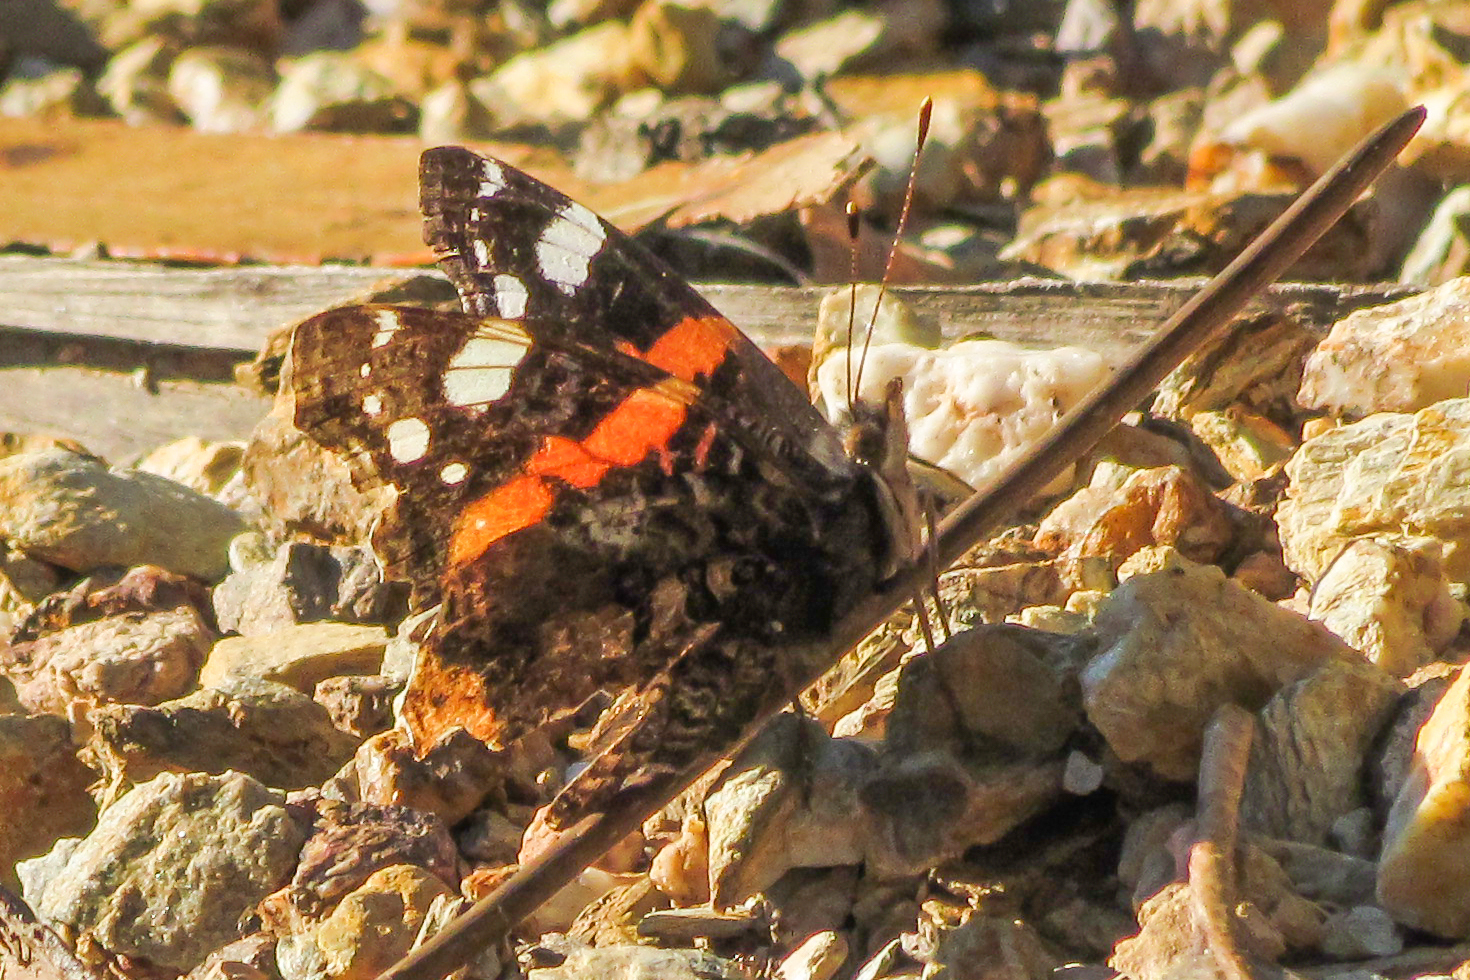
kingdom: Animalia
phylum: Arthropoda
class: Insecta
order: Lepidoptera
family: Nymphalidae
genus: Vanessa
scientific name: Vanessa atalanta
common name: Red admiral
